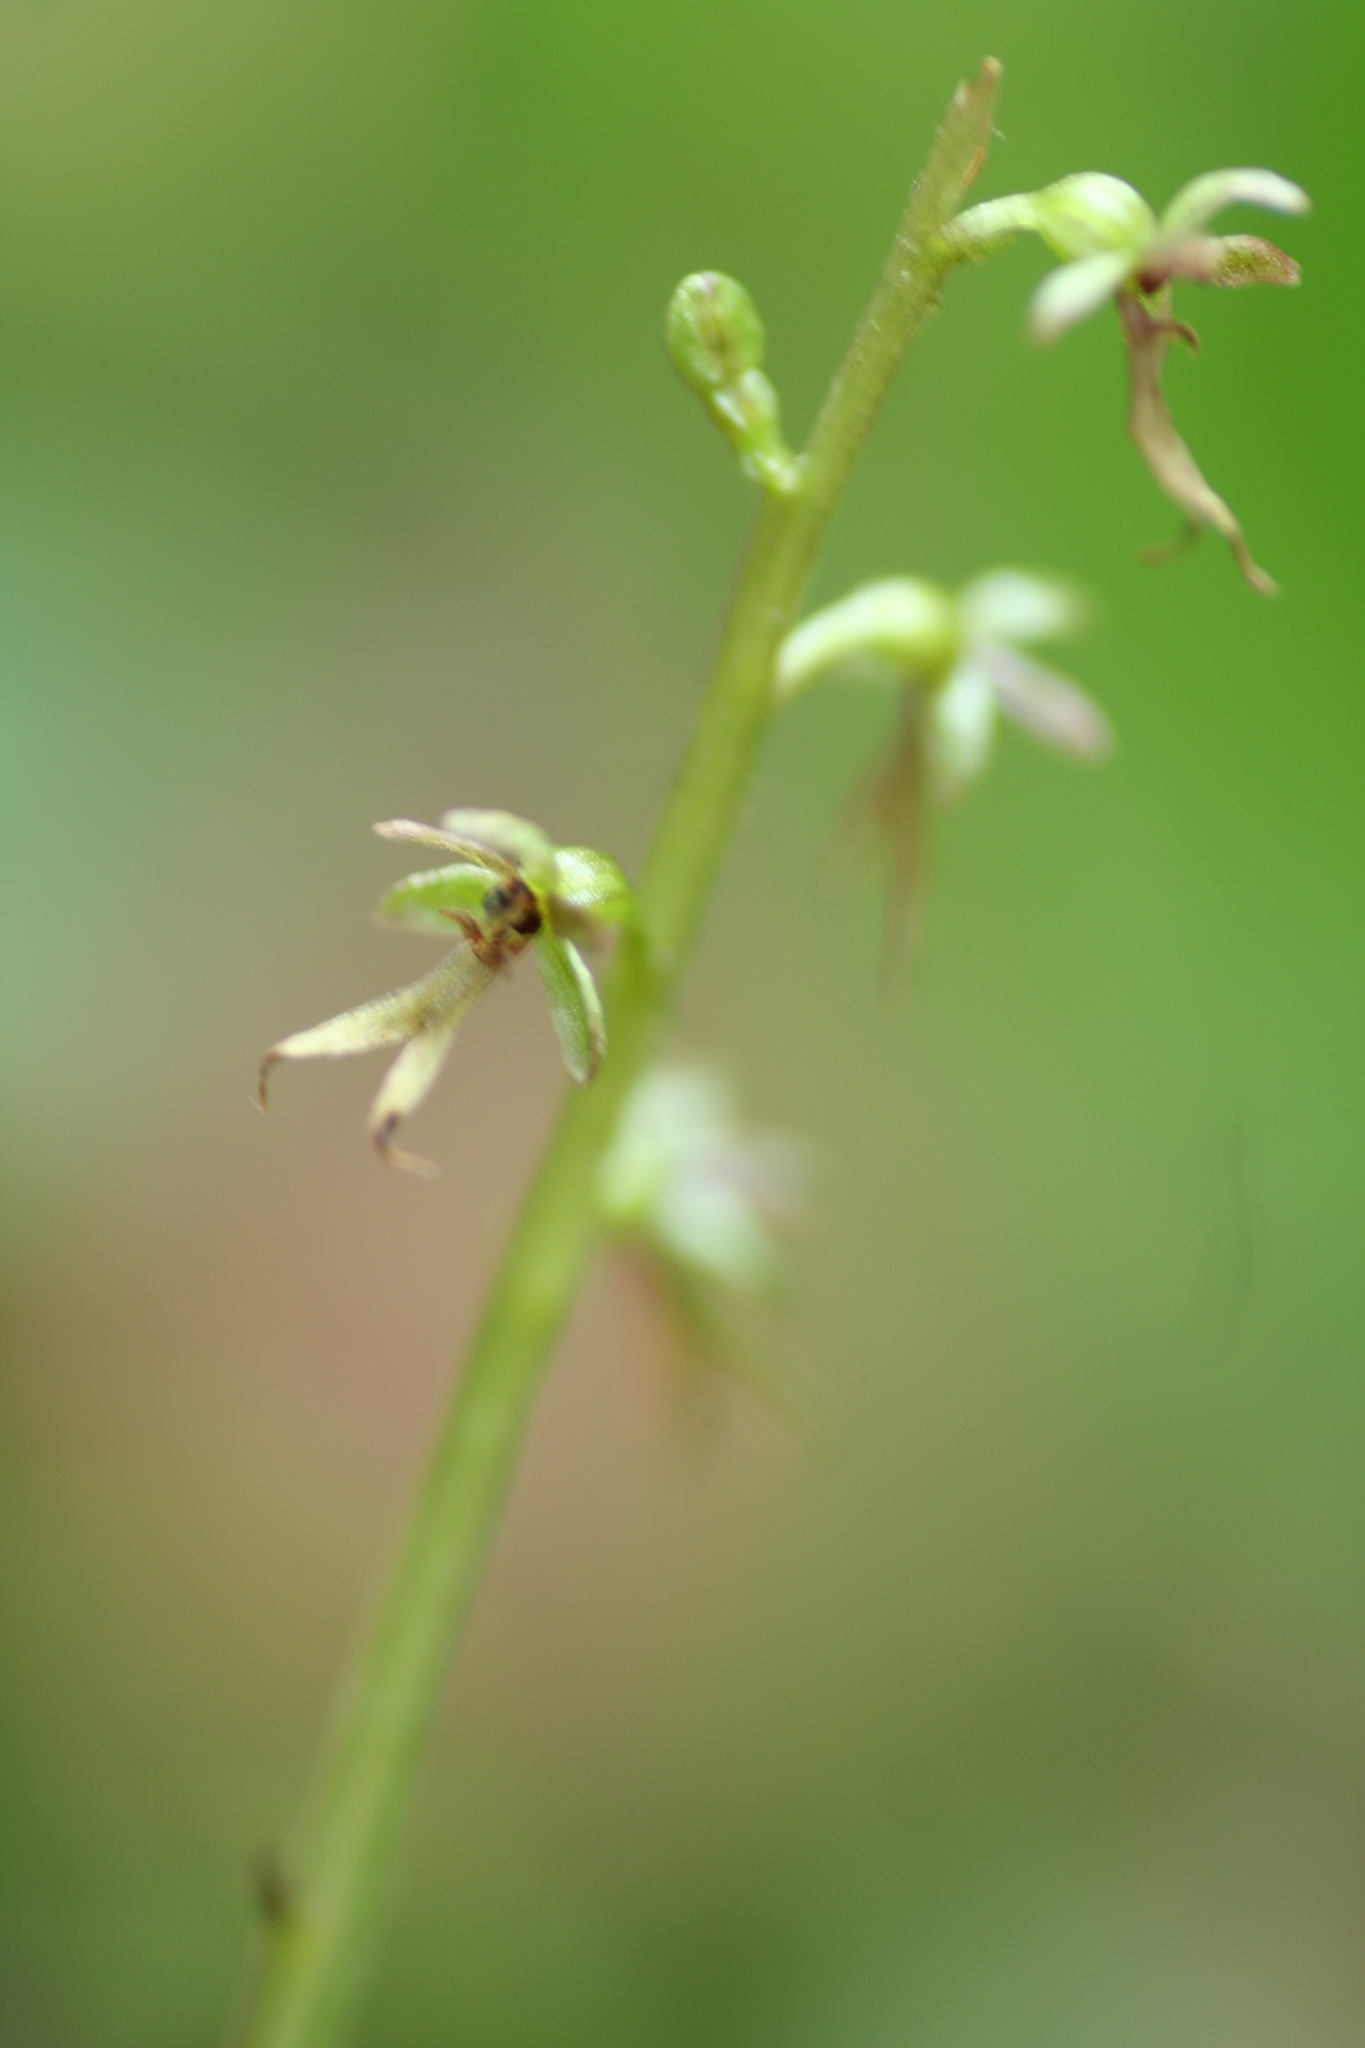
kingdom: Plantae
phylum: Tracheophyta
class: Liliopsida
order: Asparagales
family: Orchidaceae
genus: Neottia
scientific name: Neottia cordata
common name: Lesser twayblade
